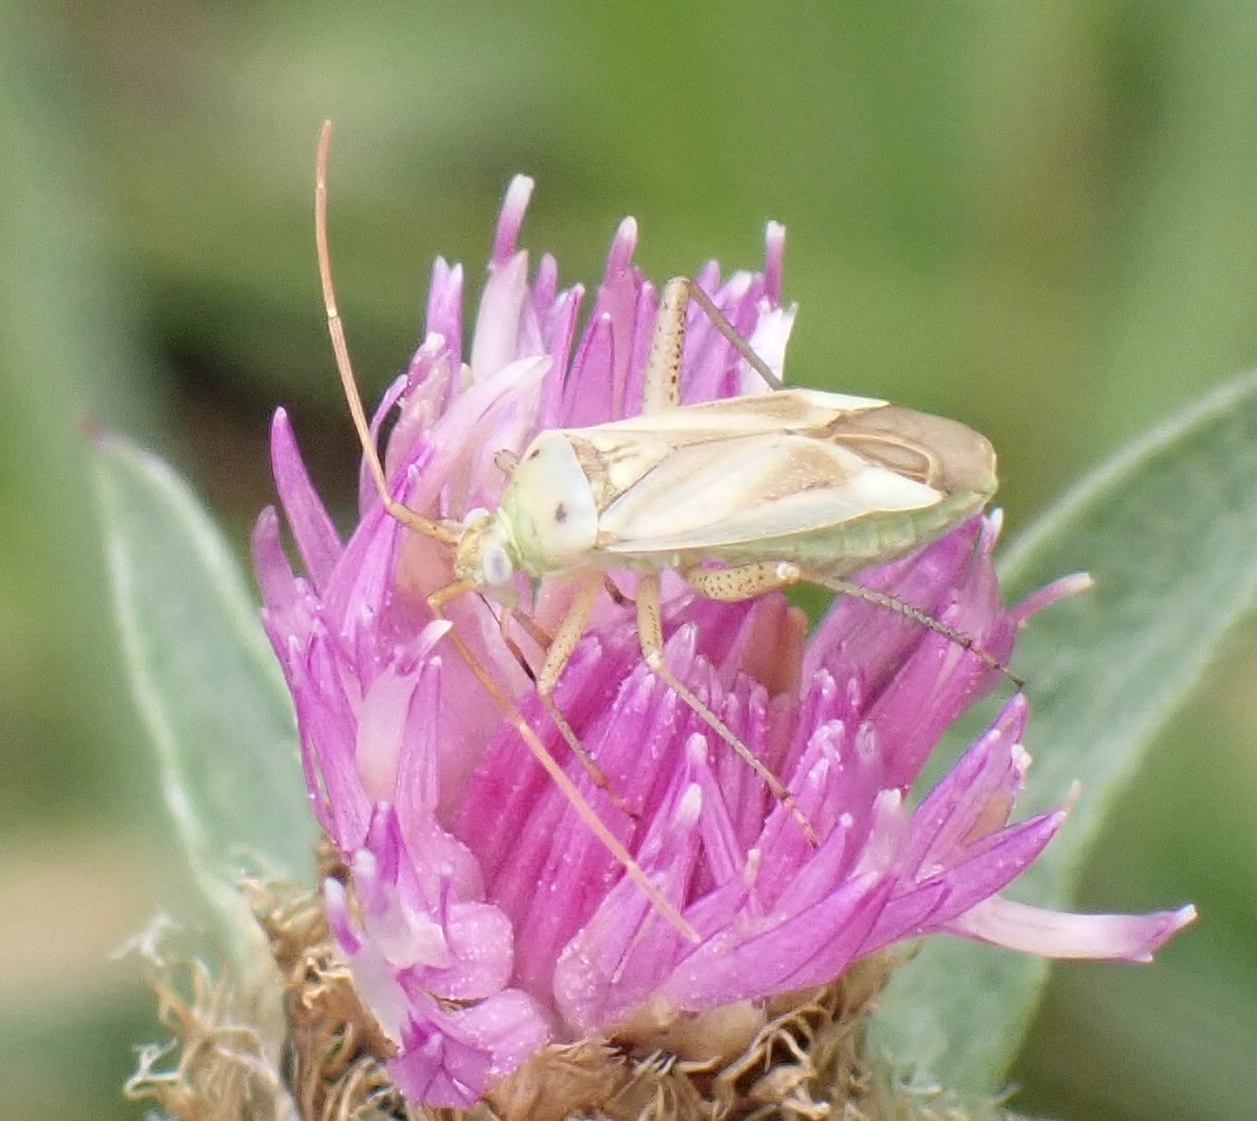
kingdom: Animalia
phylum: Arthropoda
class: Insecta
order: Hemiptera
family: Miridae
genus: Adelphocoris
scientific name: Adelphocoris lineolatus
